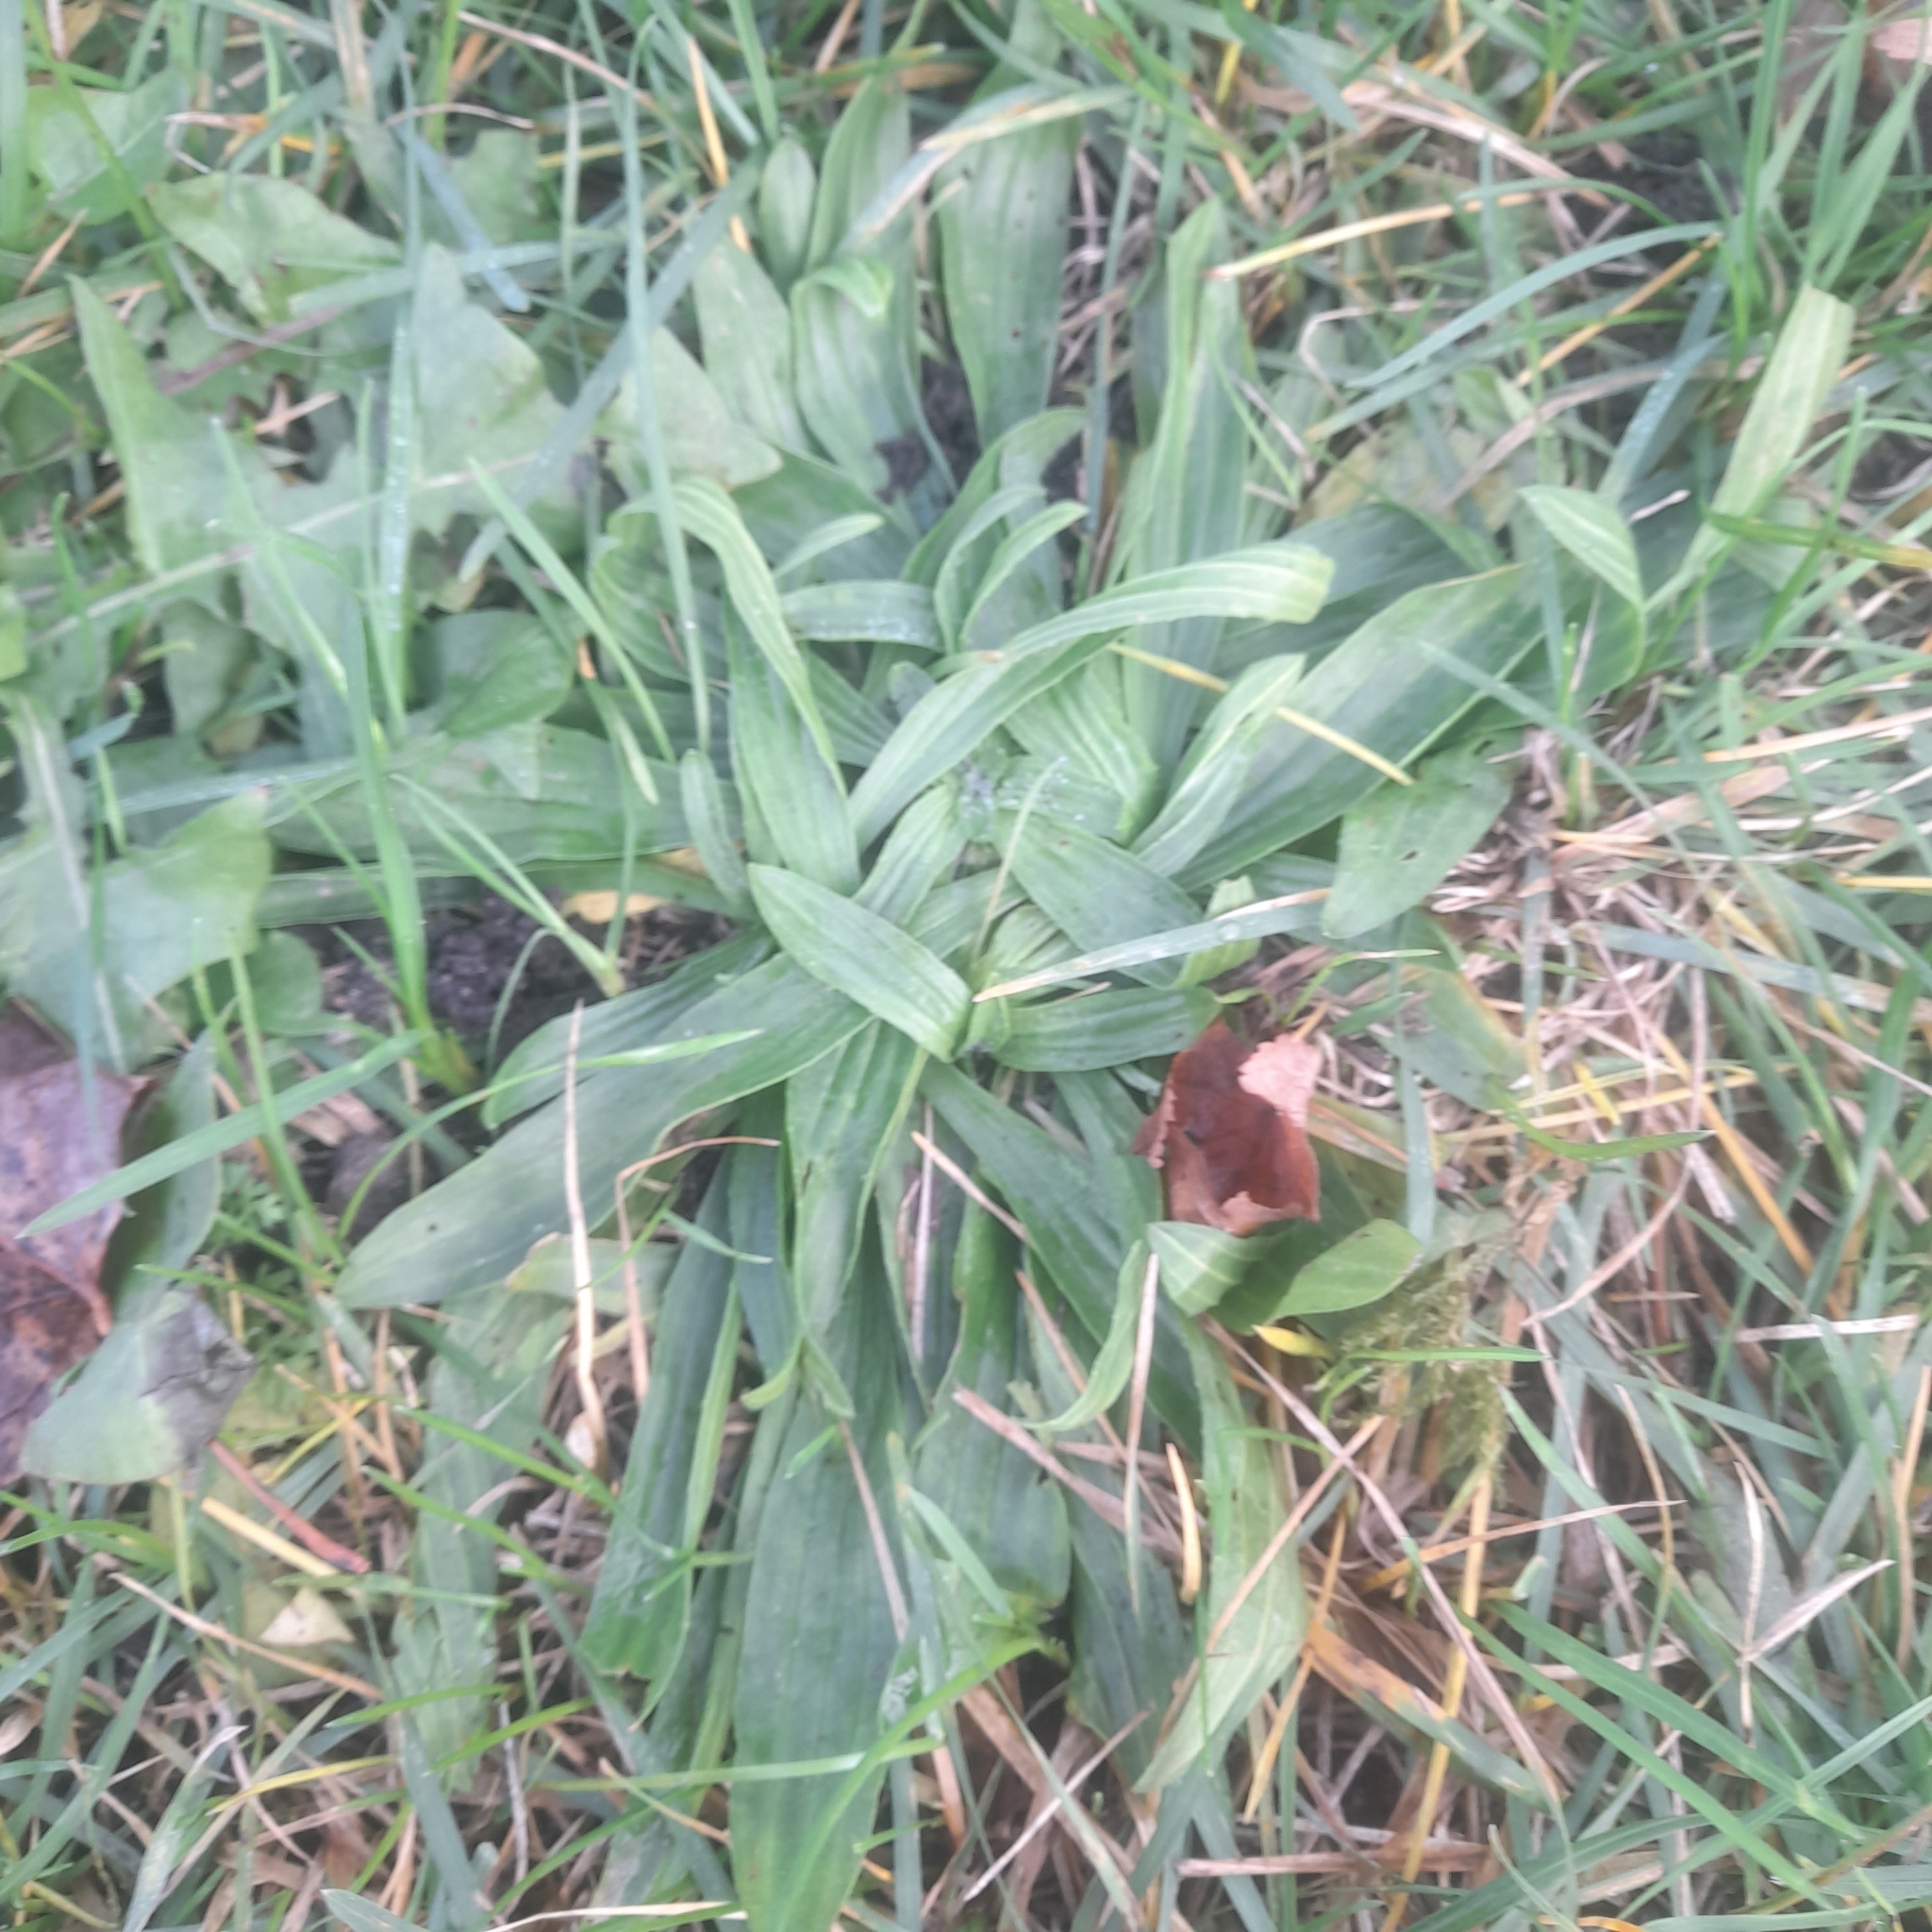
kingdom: Plantae
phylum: Tracheophyta
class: Magnoliopsida
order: Lamiales
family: Plantaginaceae
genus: Plantago
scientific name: Plantago lanceolata
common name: Ribwort plantain
